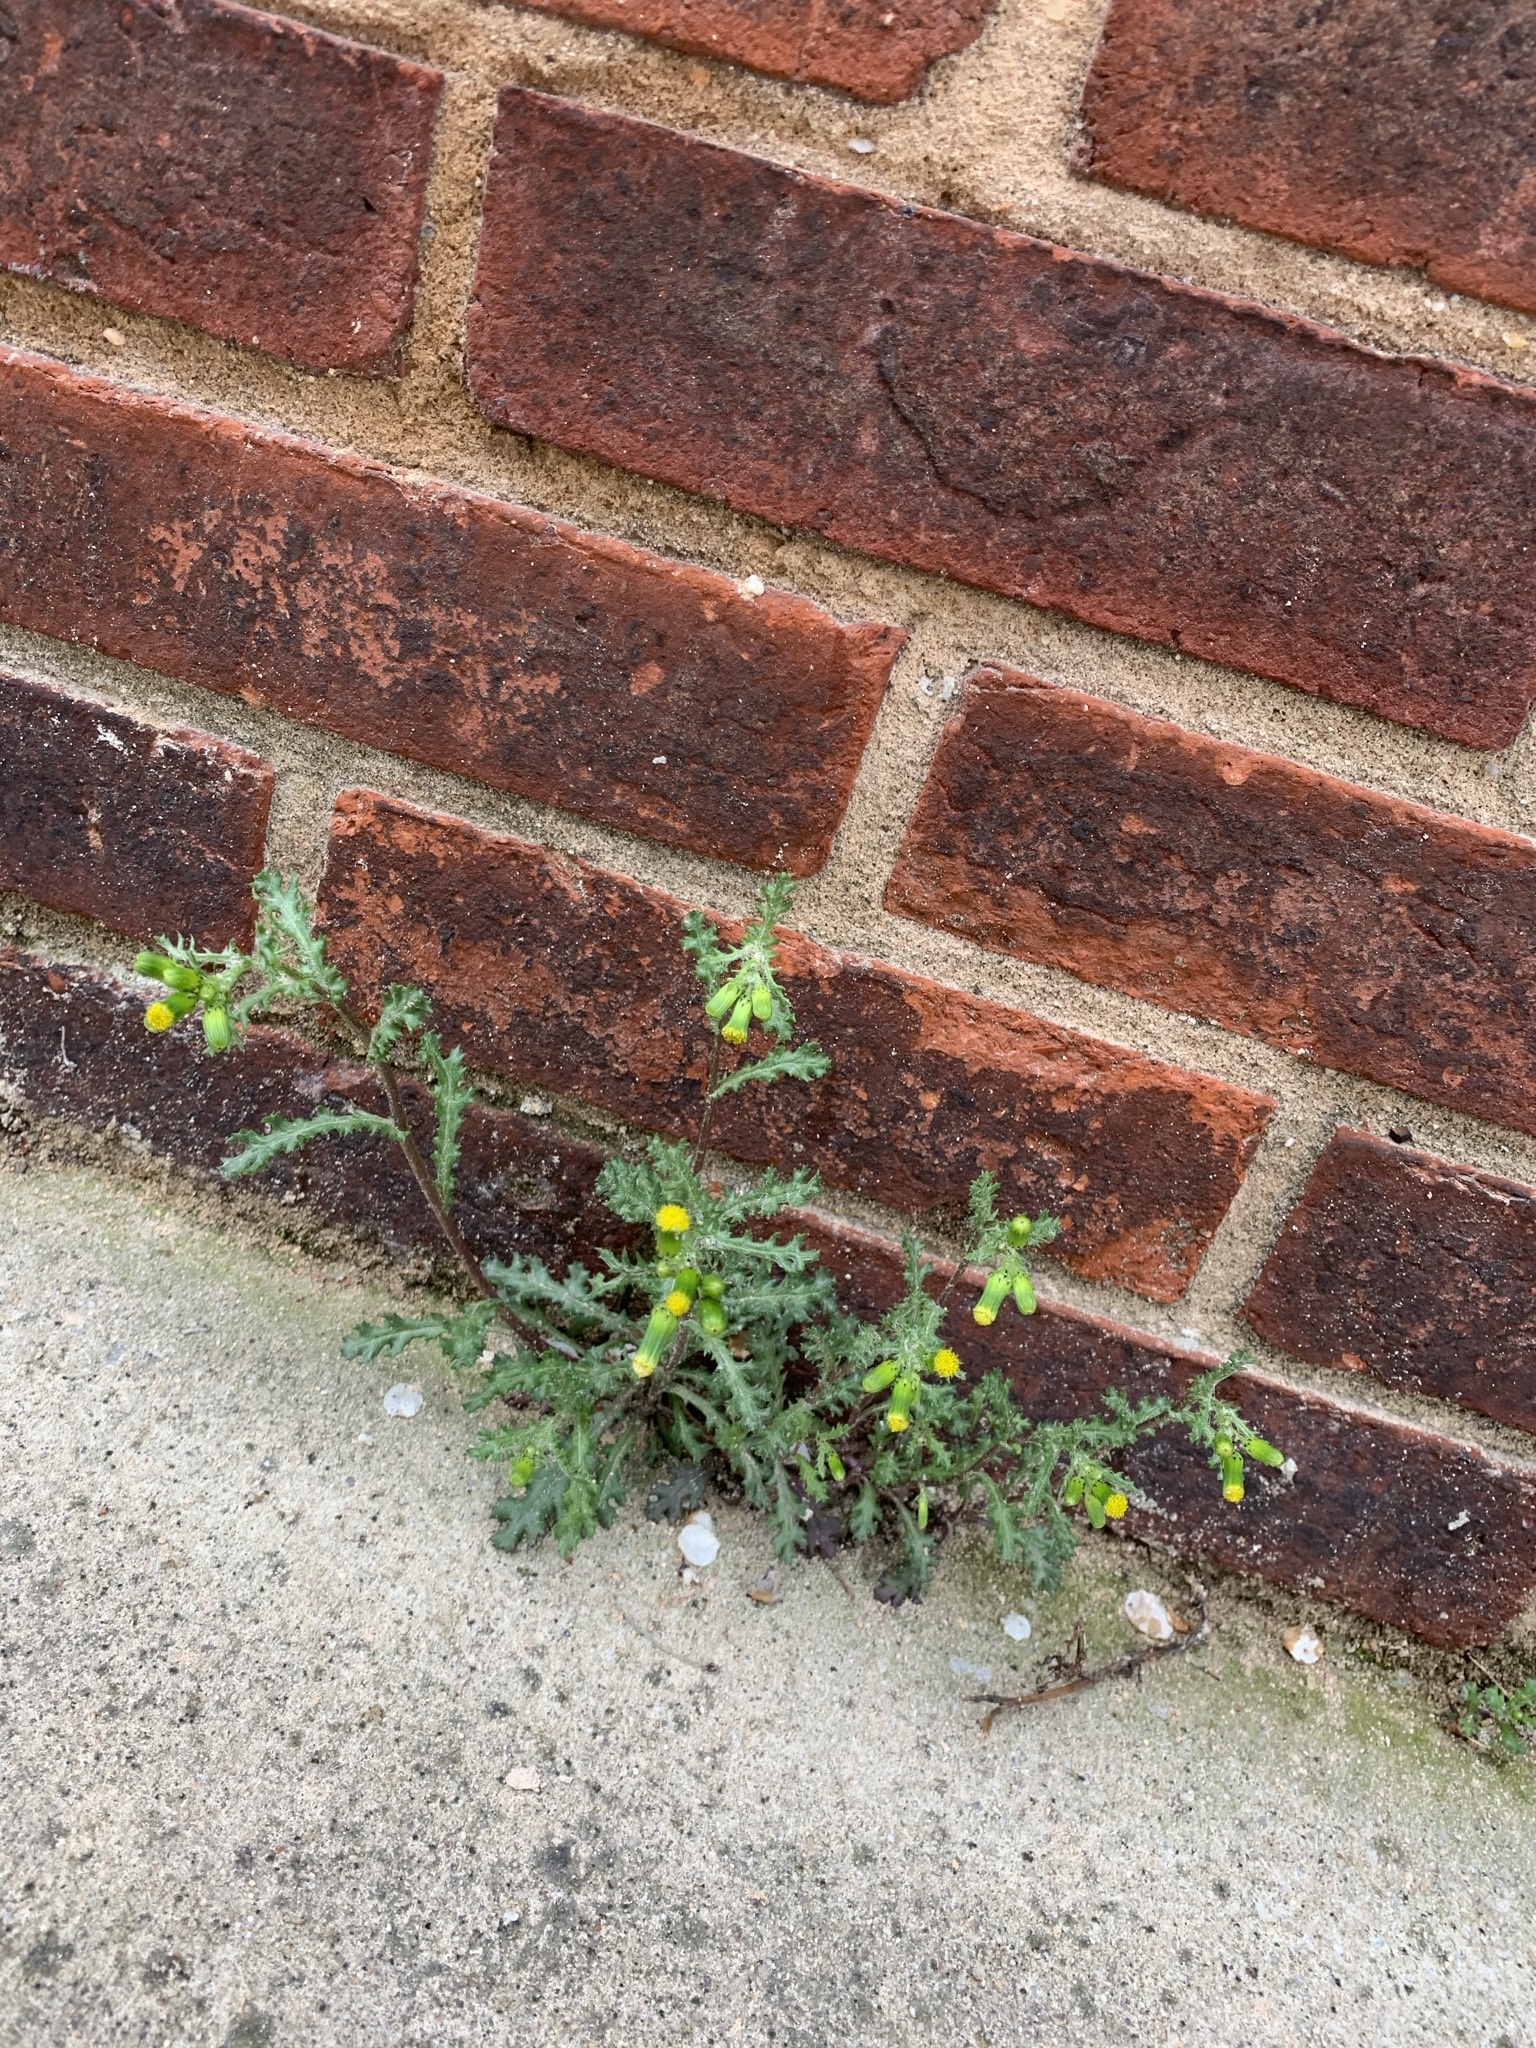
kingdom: Plantae
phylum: Tracheophyta
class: Magnoliopsida
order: Asterales
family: Asteraceae
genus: Senecio
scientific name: Senecio vulgaris
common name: Old-man-in-the-spring
